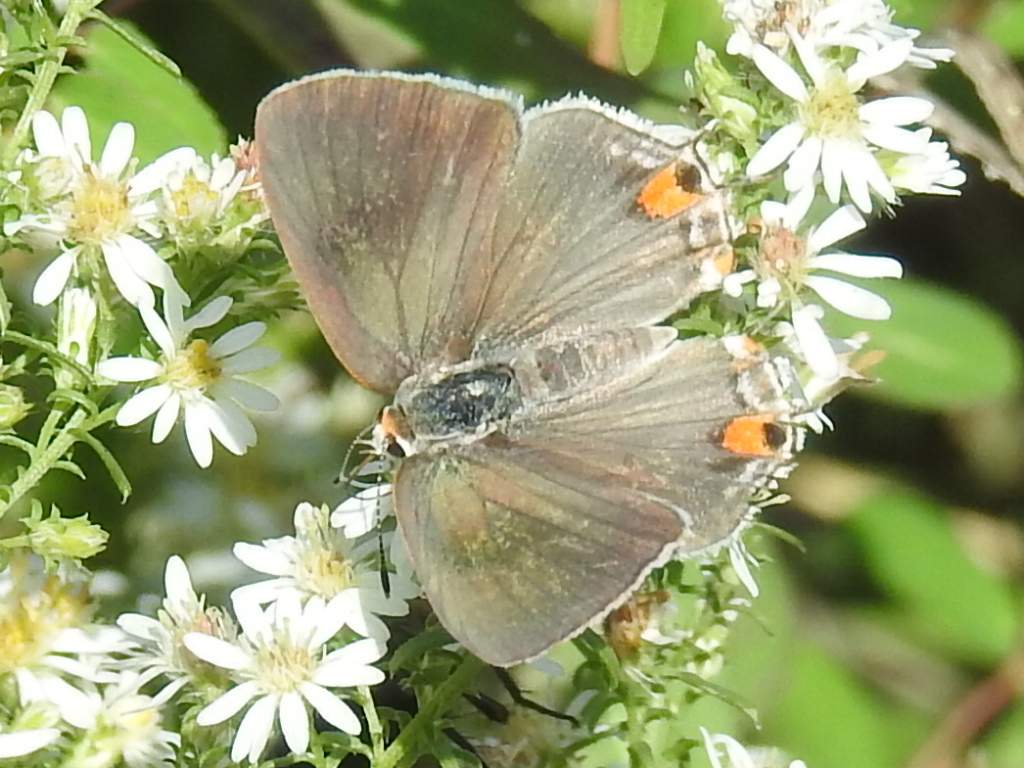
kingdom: Animalia
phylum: Arthropoda
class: Insecta
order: Lepidoptera
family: Lycaenidae
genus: Strymon
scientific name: Strymon melinus
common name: Gray hairstreak
